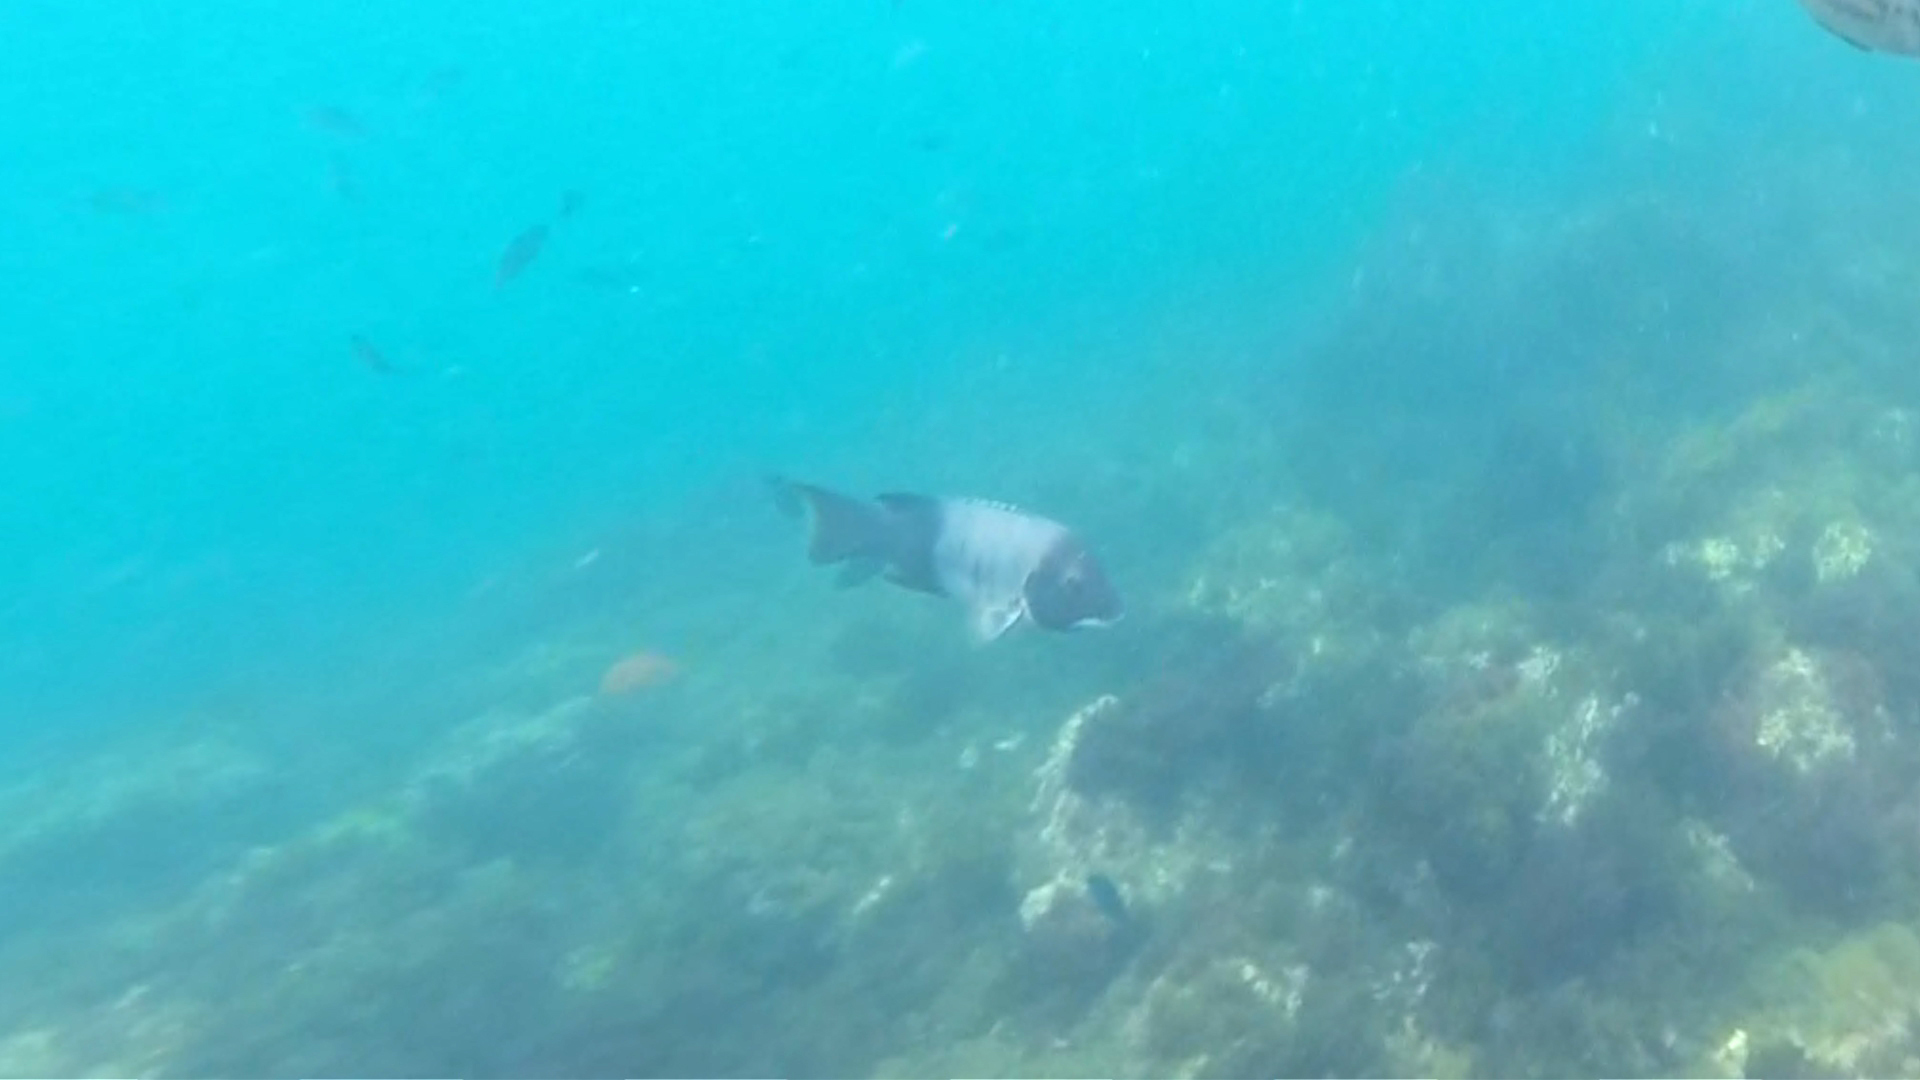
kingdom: Animalia
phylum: Chordata
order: Perciformes
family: Labridae
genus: Semicossyphus
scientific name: Semicossyphus pulcher
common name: California sheephead
